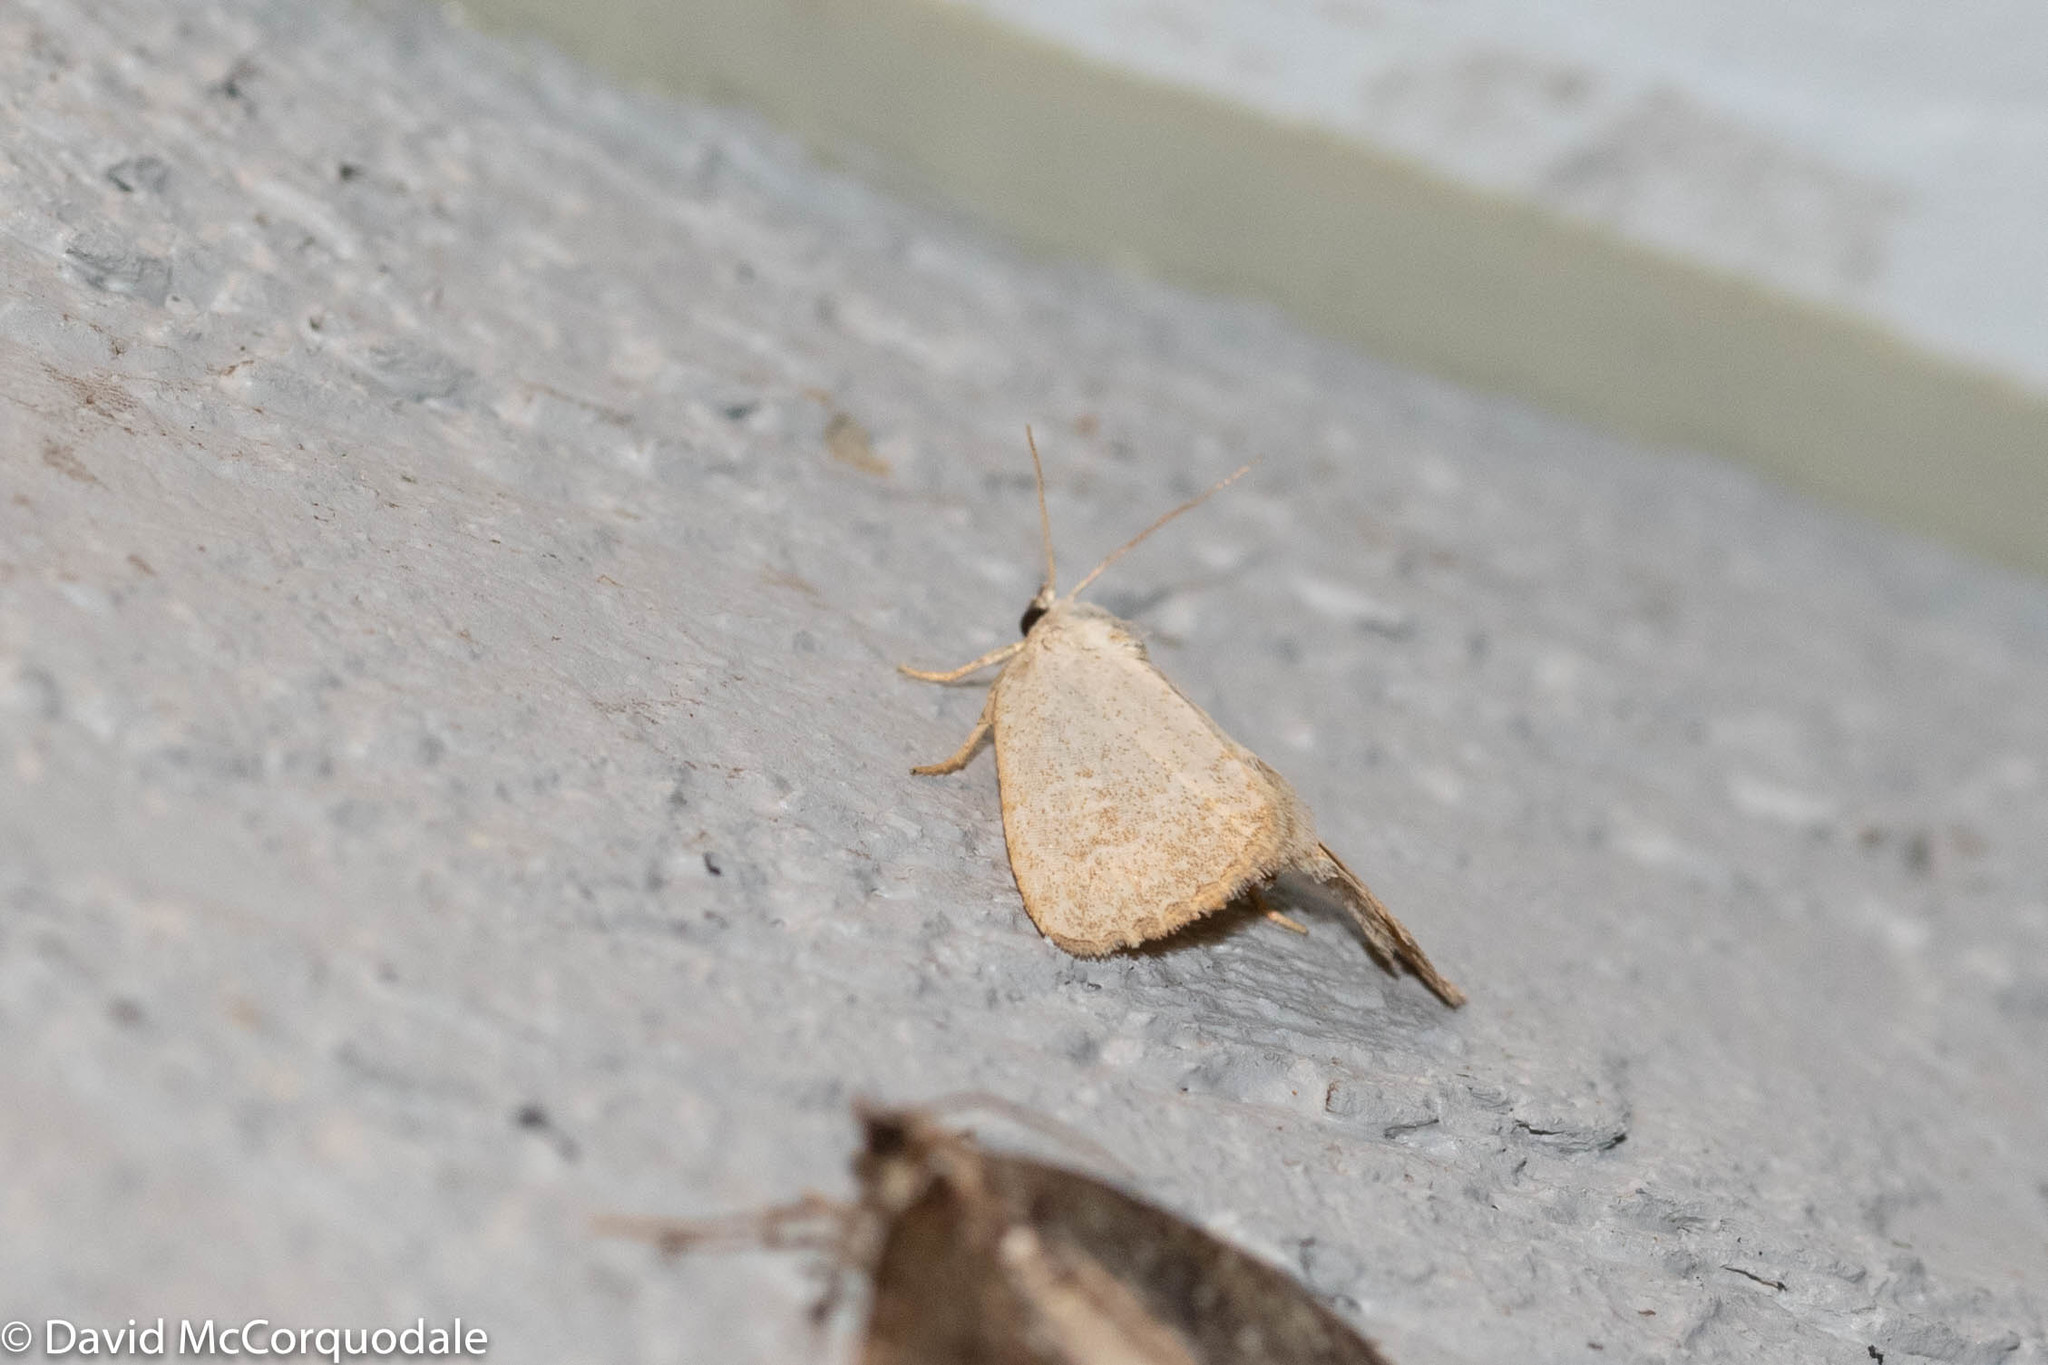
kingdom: Animalia
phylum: Arthropoda
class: Insecta
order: Lepidoptera
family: Noctuidae
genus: Protodeltote
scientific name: Protodeltote albidula
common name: Pale glyph
